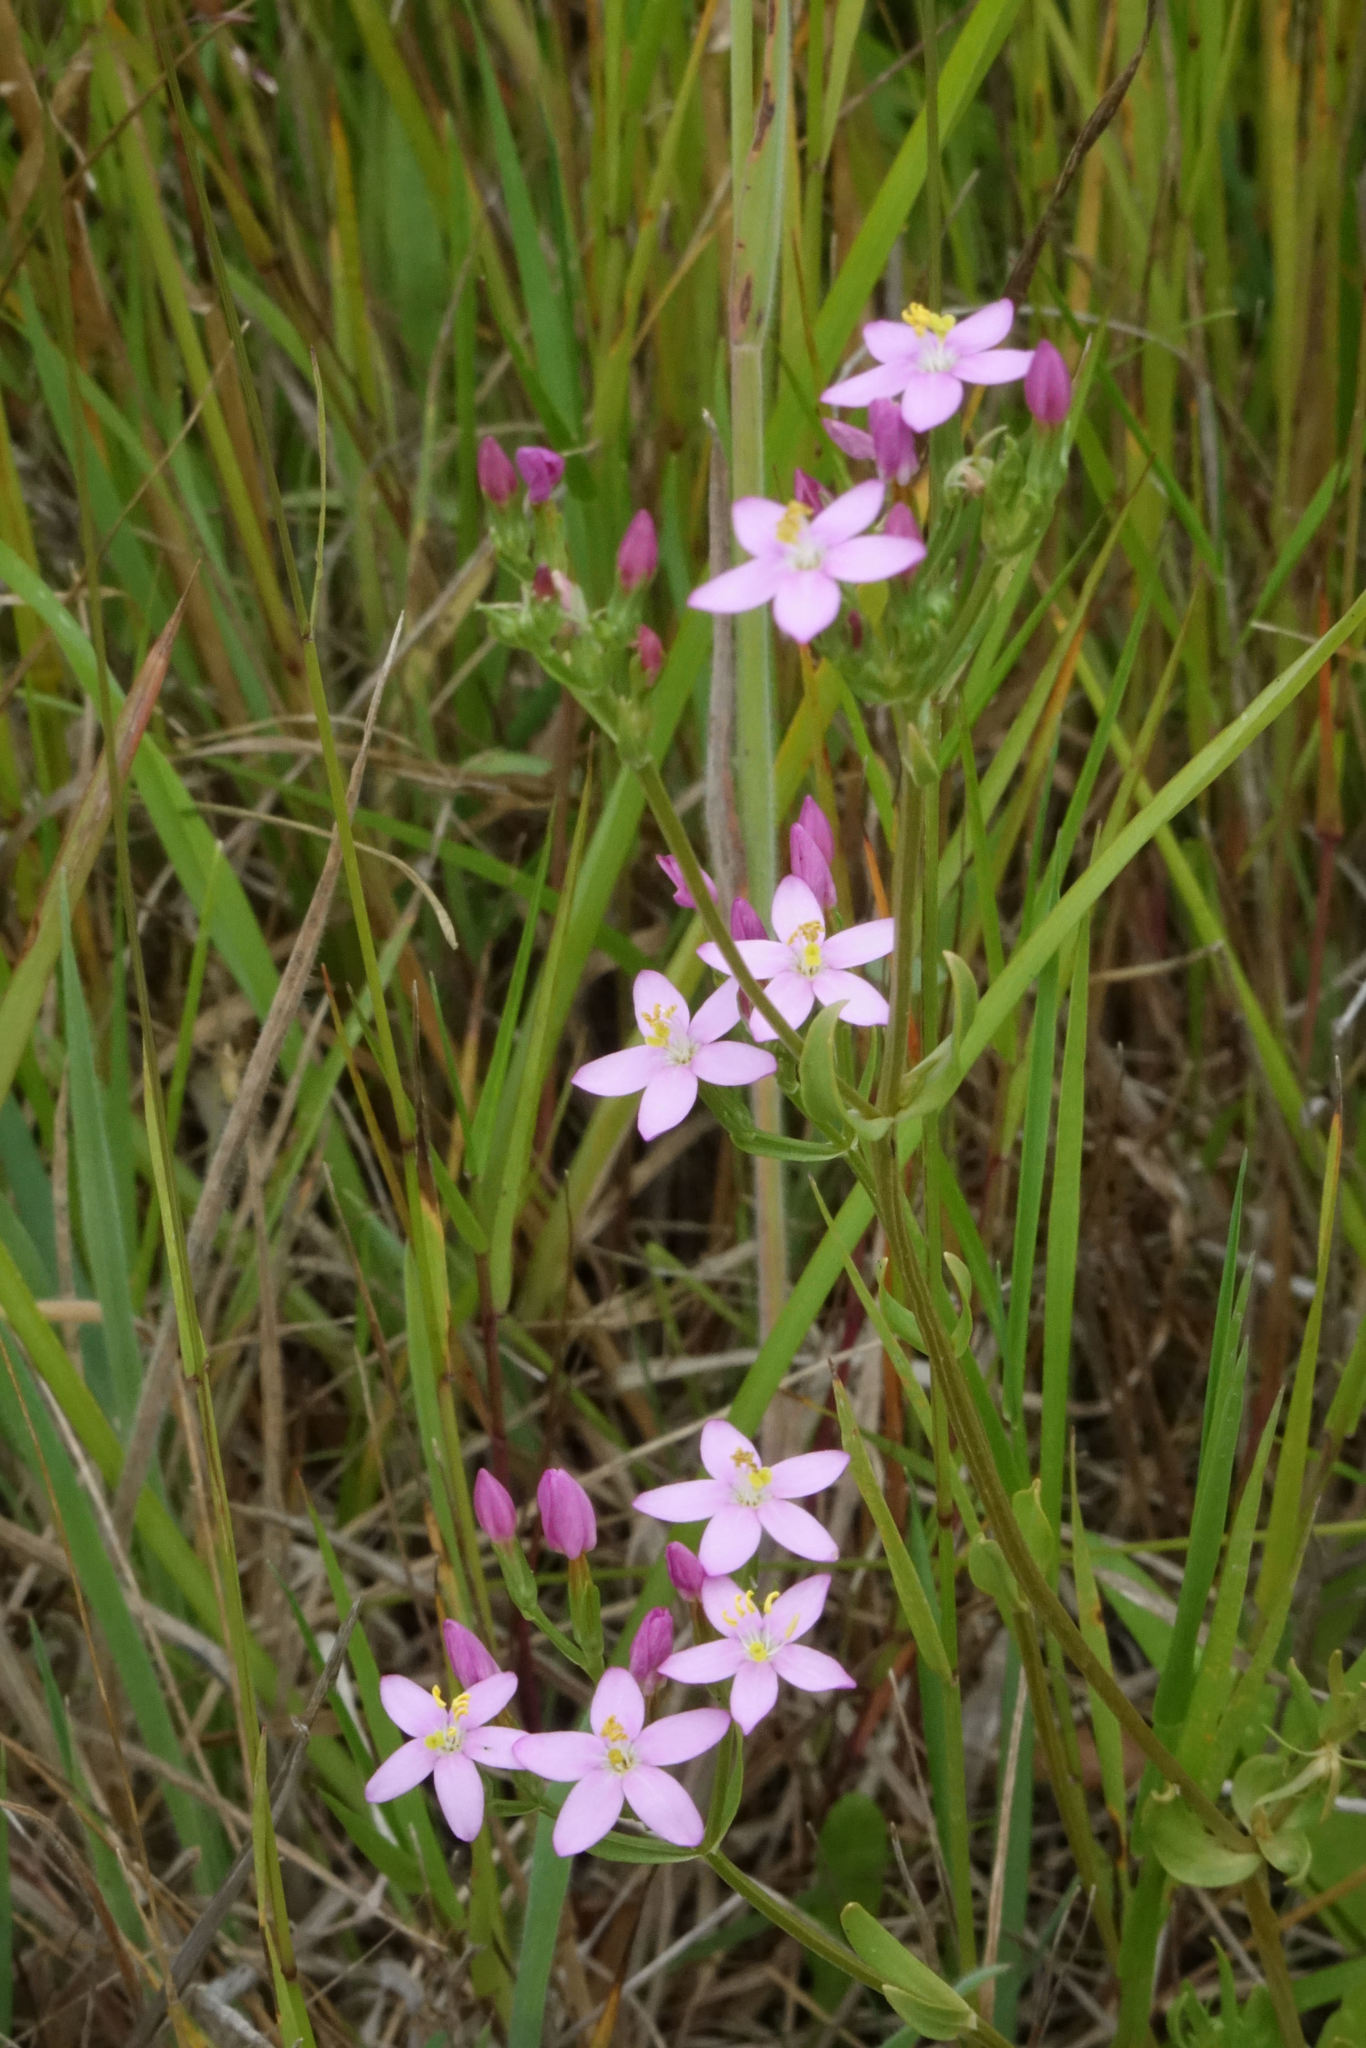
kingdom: Plantae
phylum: Tracheophyta
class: Magnoliopsida
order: Gentianales
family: Gentianaceae
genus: Centaurium
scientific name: Centaurium erythraea
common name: Common centaury
